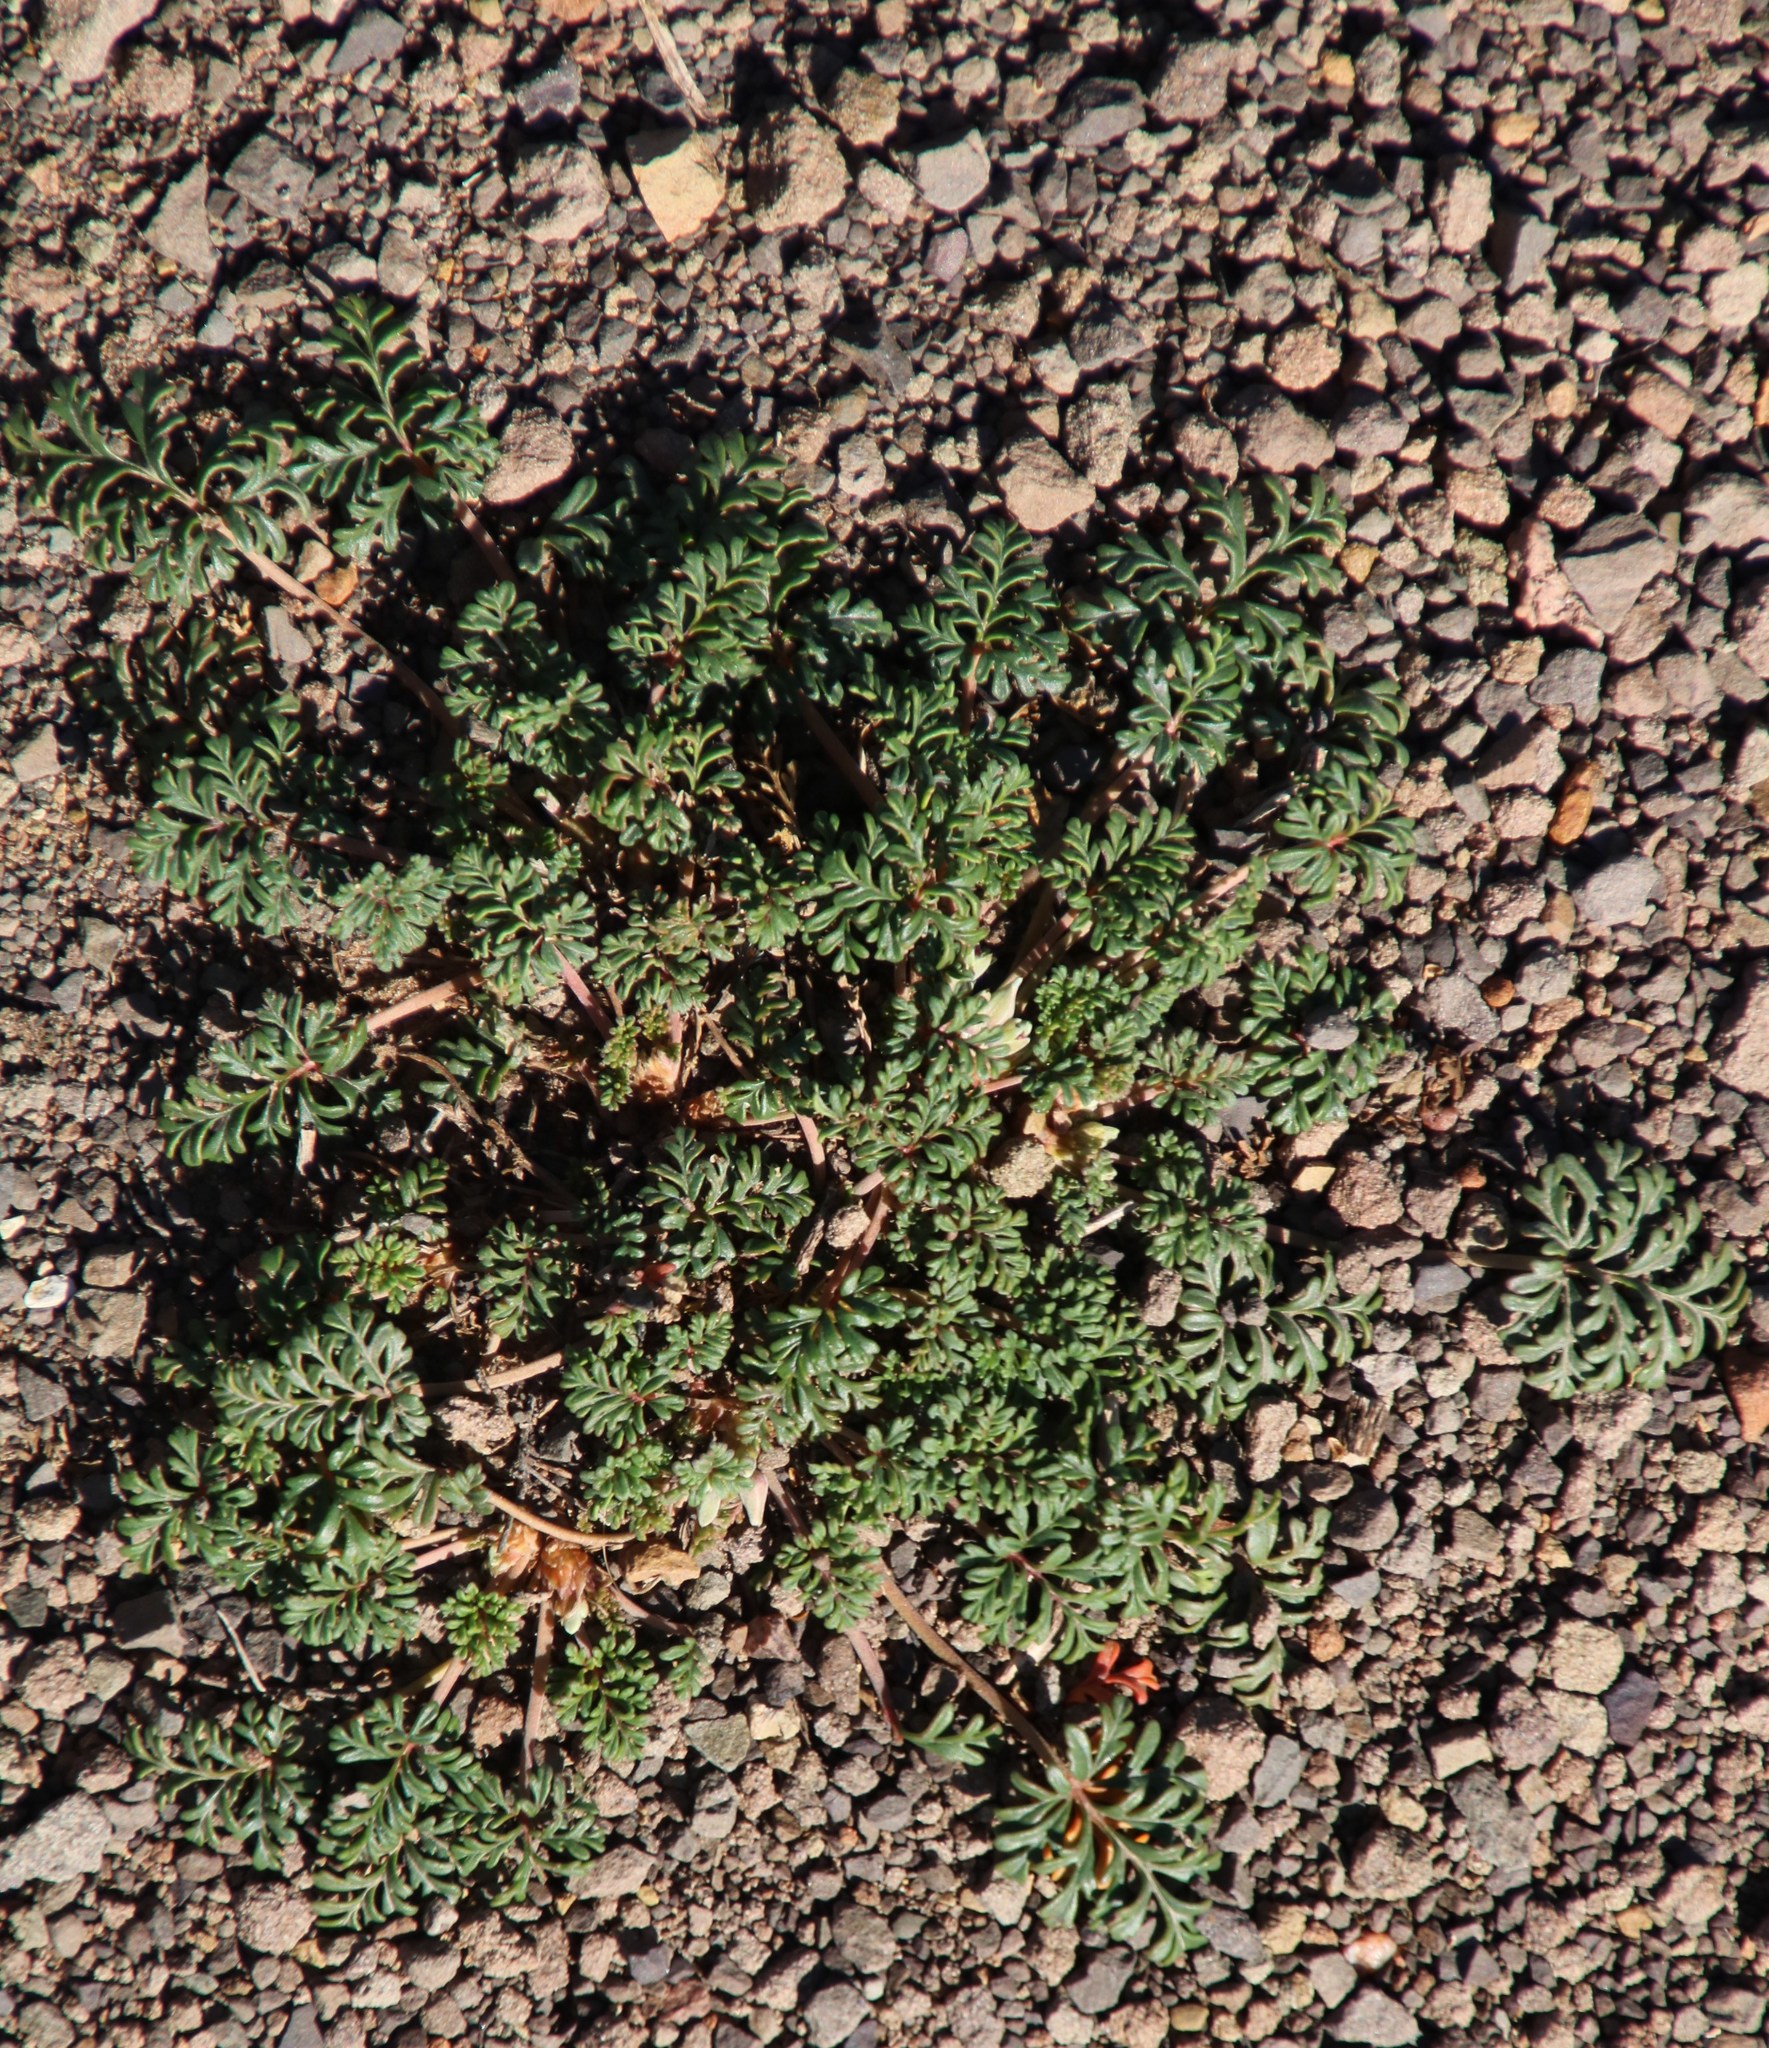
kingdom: Plantae
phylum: Tracheophyta
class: Magnoliopsida
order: Geraniales
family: Geraniaceae
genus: Pelargonium
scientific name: Pelargonium minimum
